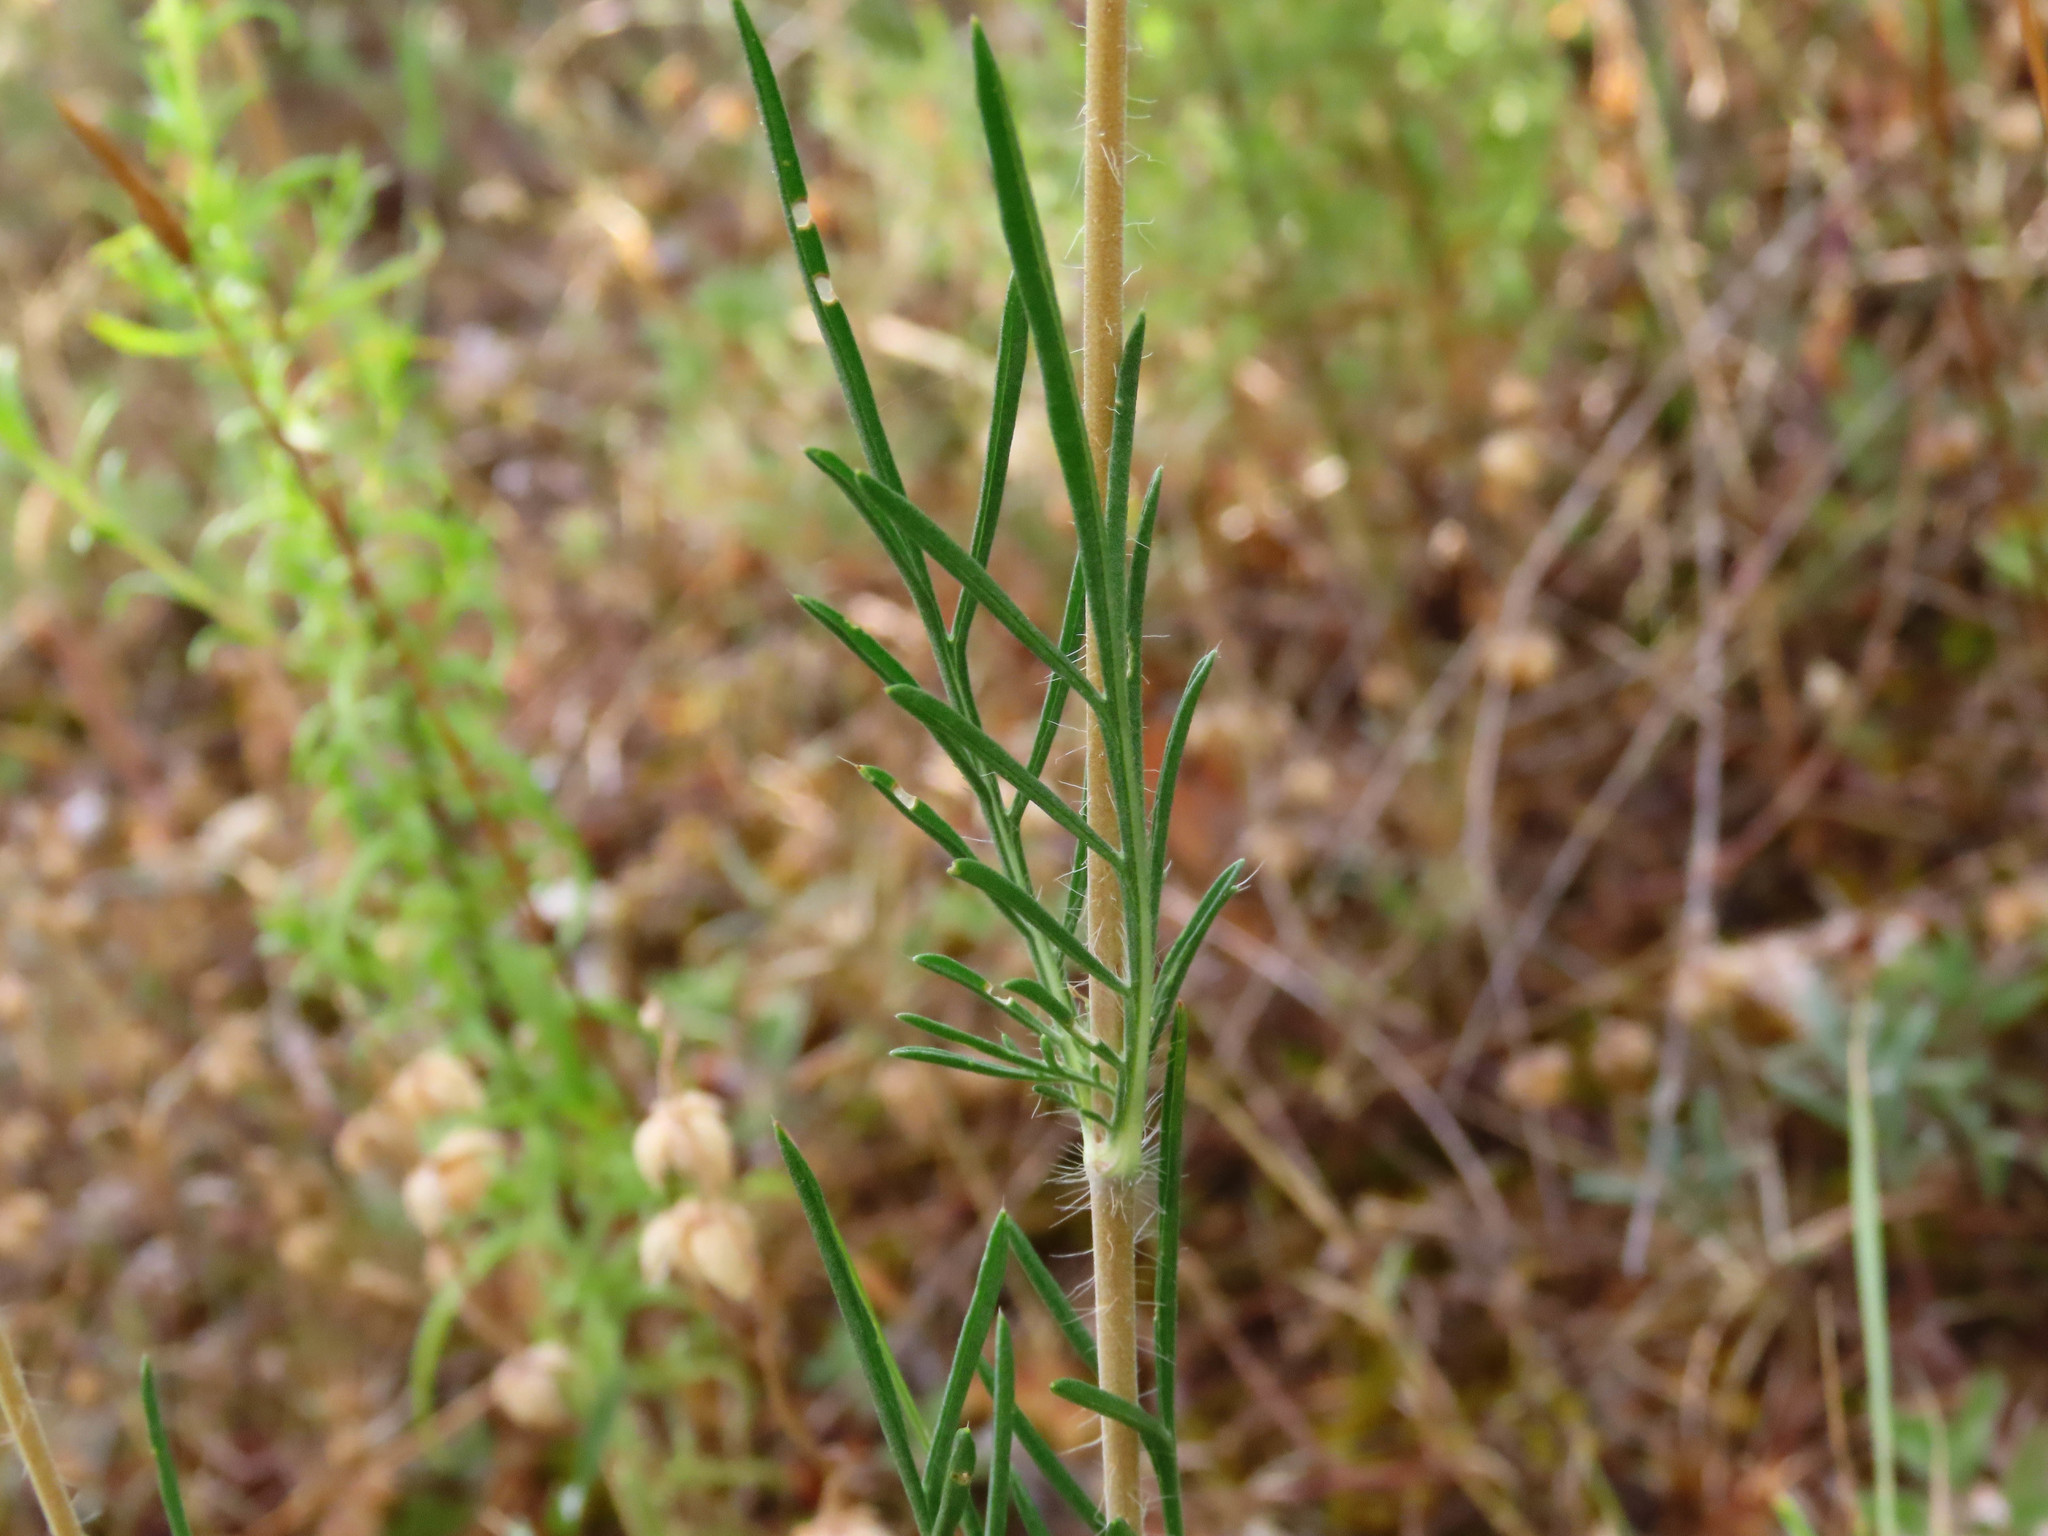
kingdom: Plantae
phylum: Tracheophyta
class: Magnoliopsida
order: Dipsacales
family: Caprifoliaceae
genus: Lomelosia
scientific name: Lomelosia argentea
